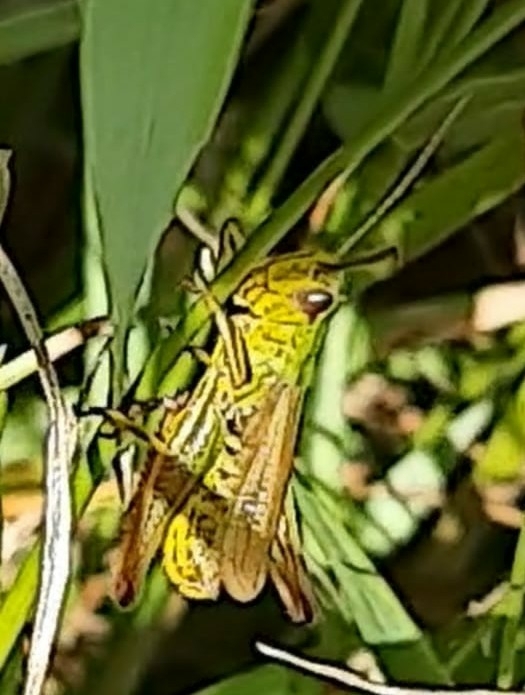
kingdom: Animalia
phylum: Arthropoda
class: Insecta
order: Orthoptera
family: Acrididae
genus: Pseudochorthippus
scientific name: Pseudochorthippus parallelus
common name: Meadow grasshopper
